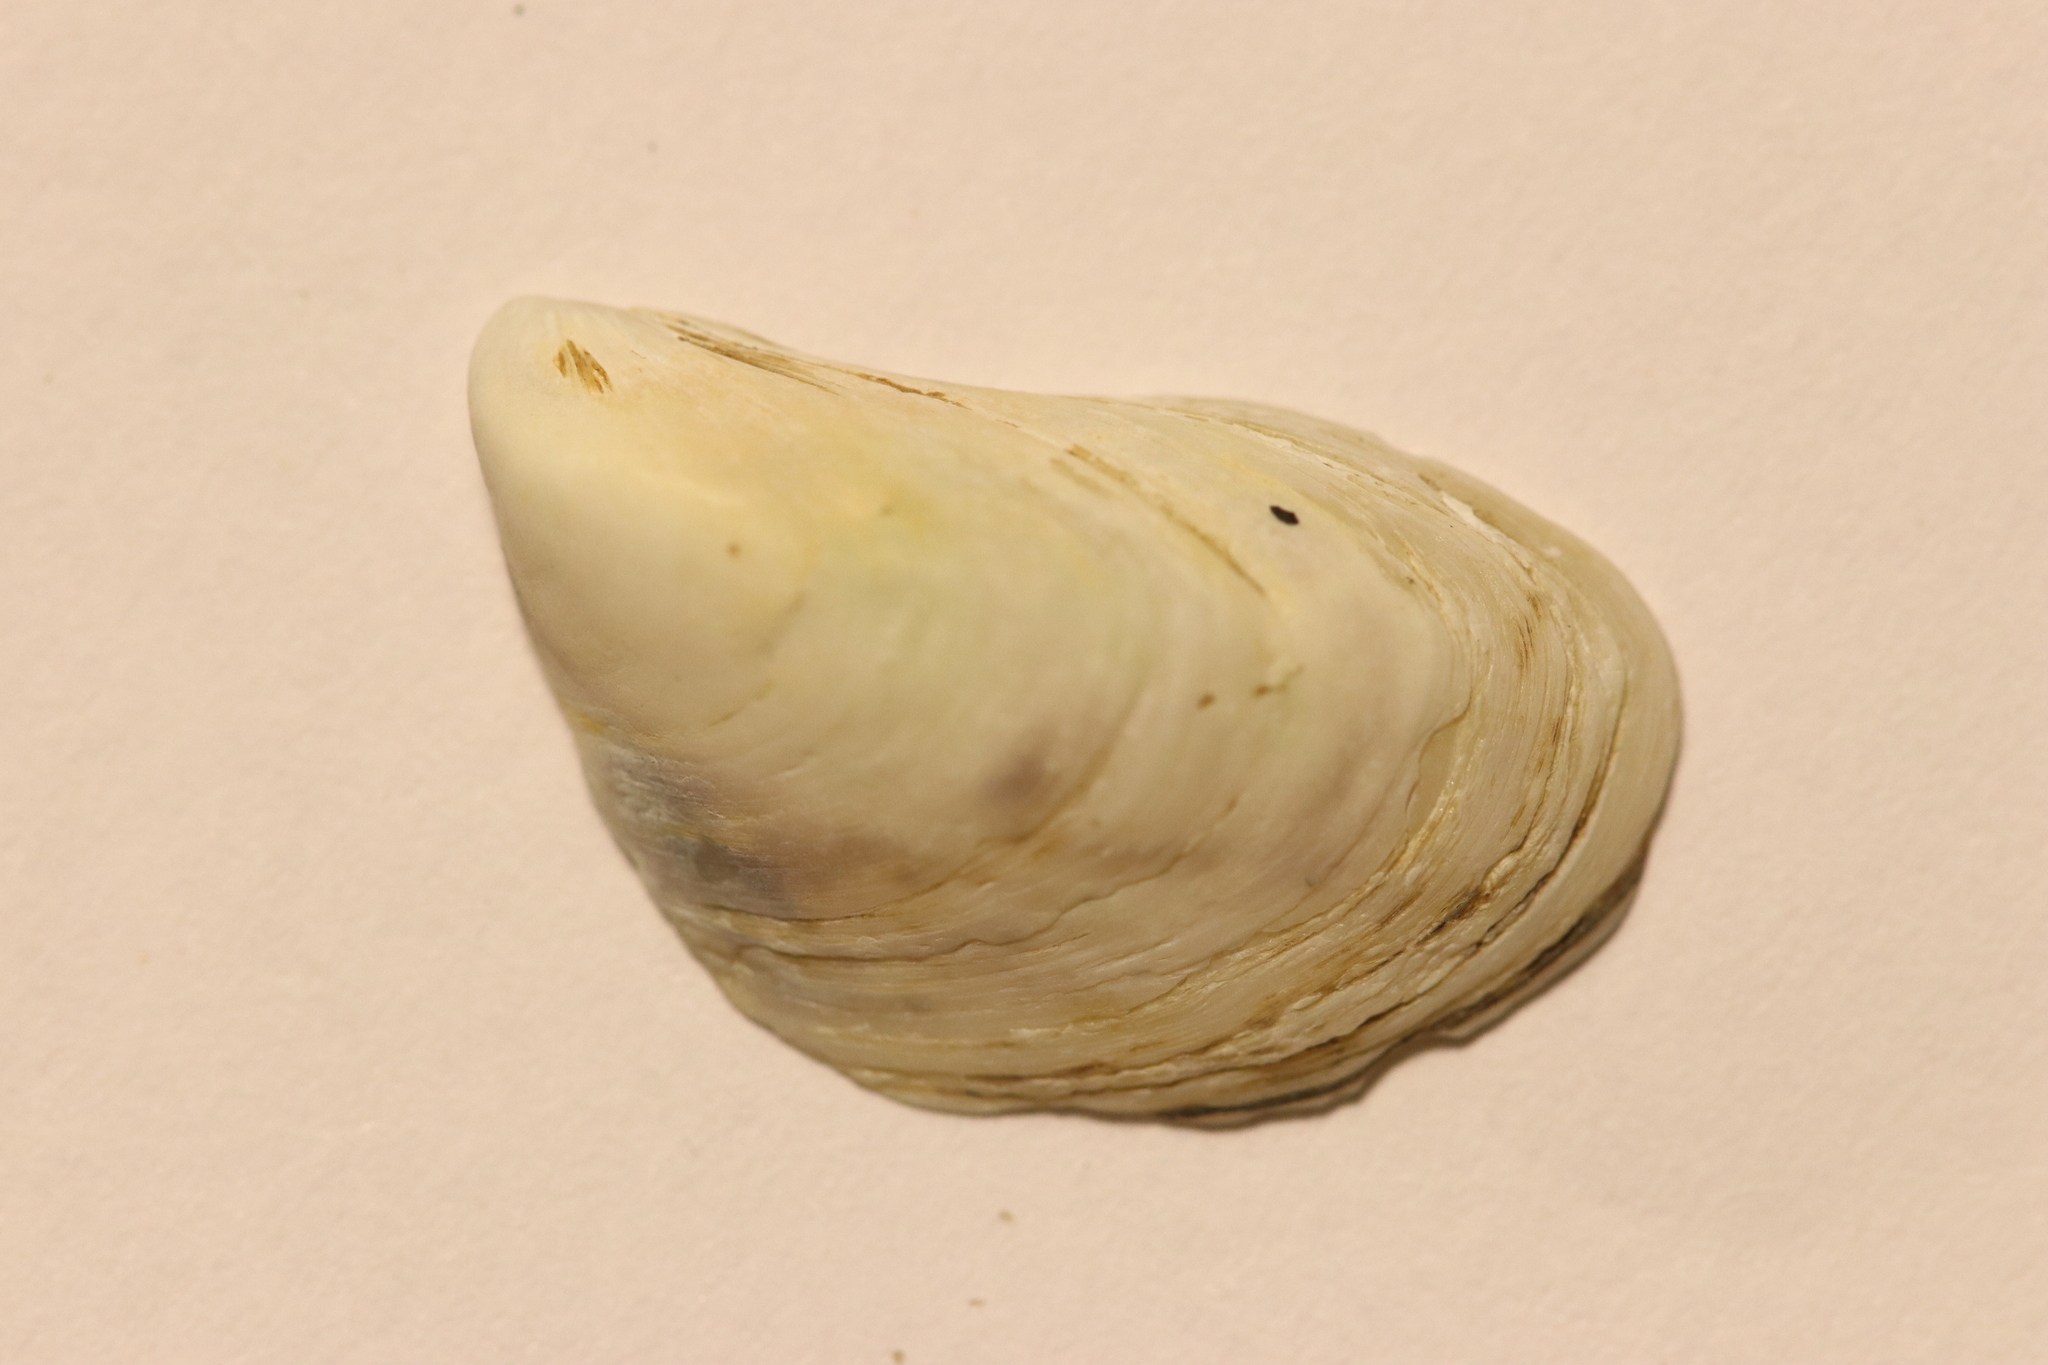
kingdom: Animalia
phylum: Mollusca
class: Bivalvia
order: Myida
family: Dreissenidae
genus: Dreissena
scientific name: Dreissena bugensis
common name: Quagga mussel
